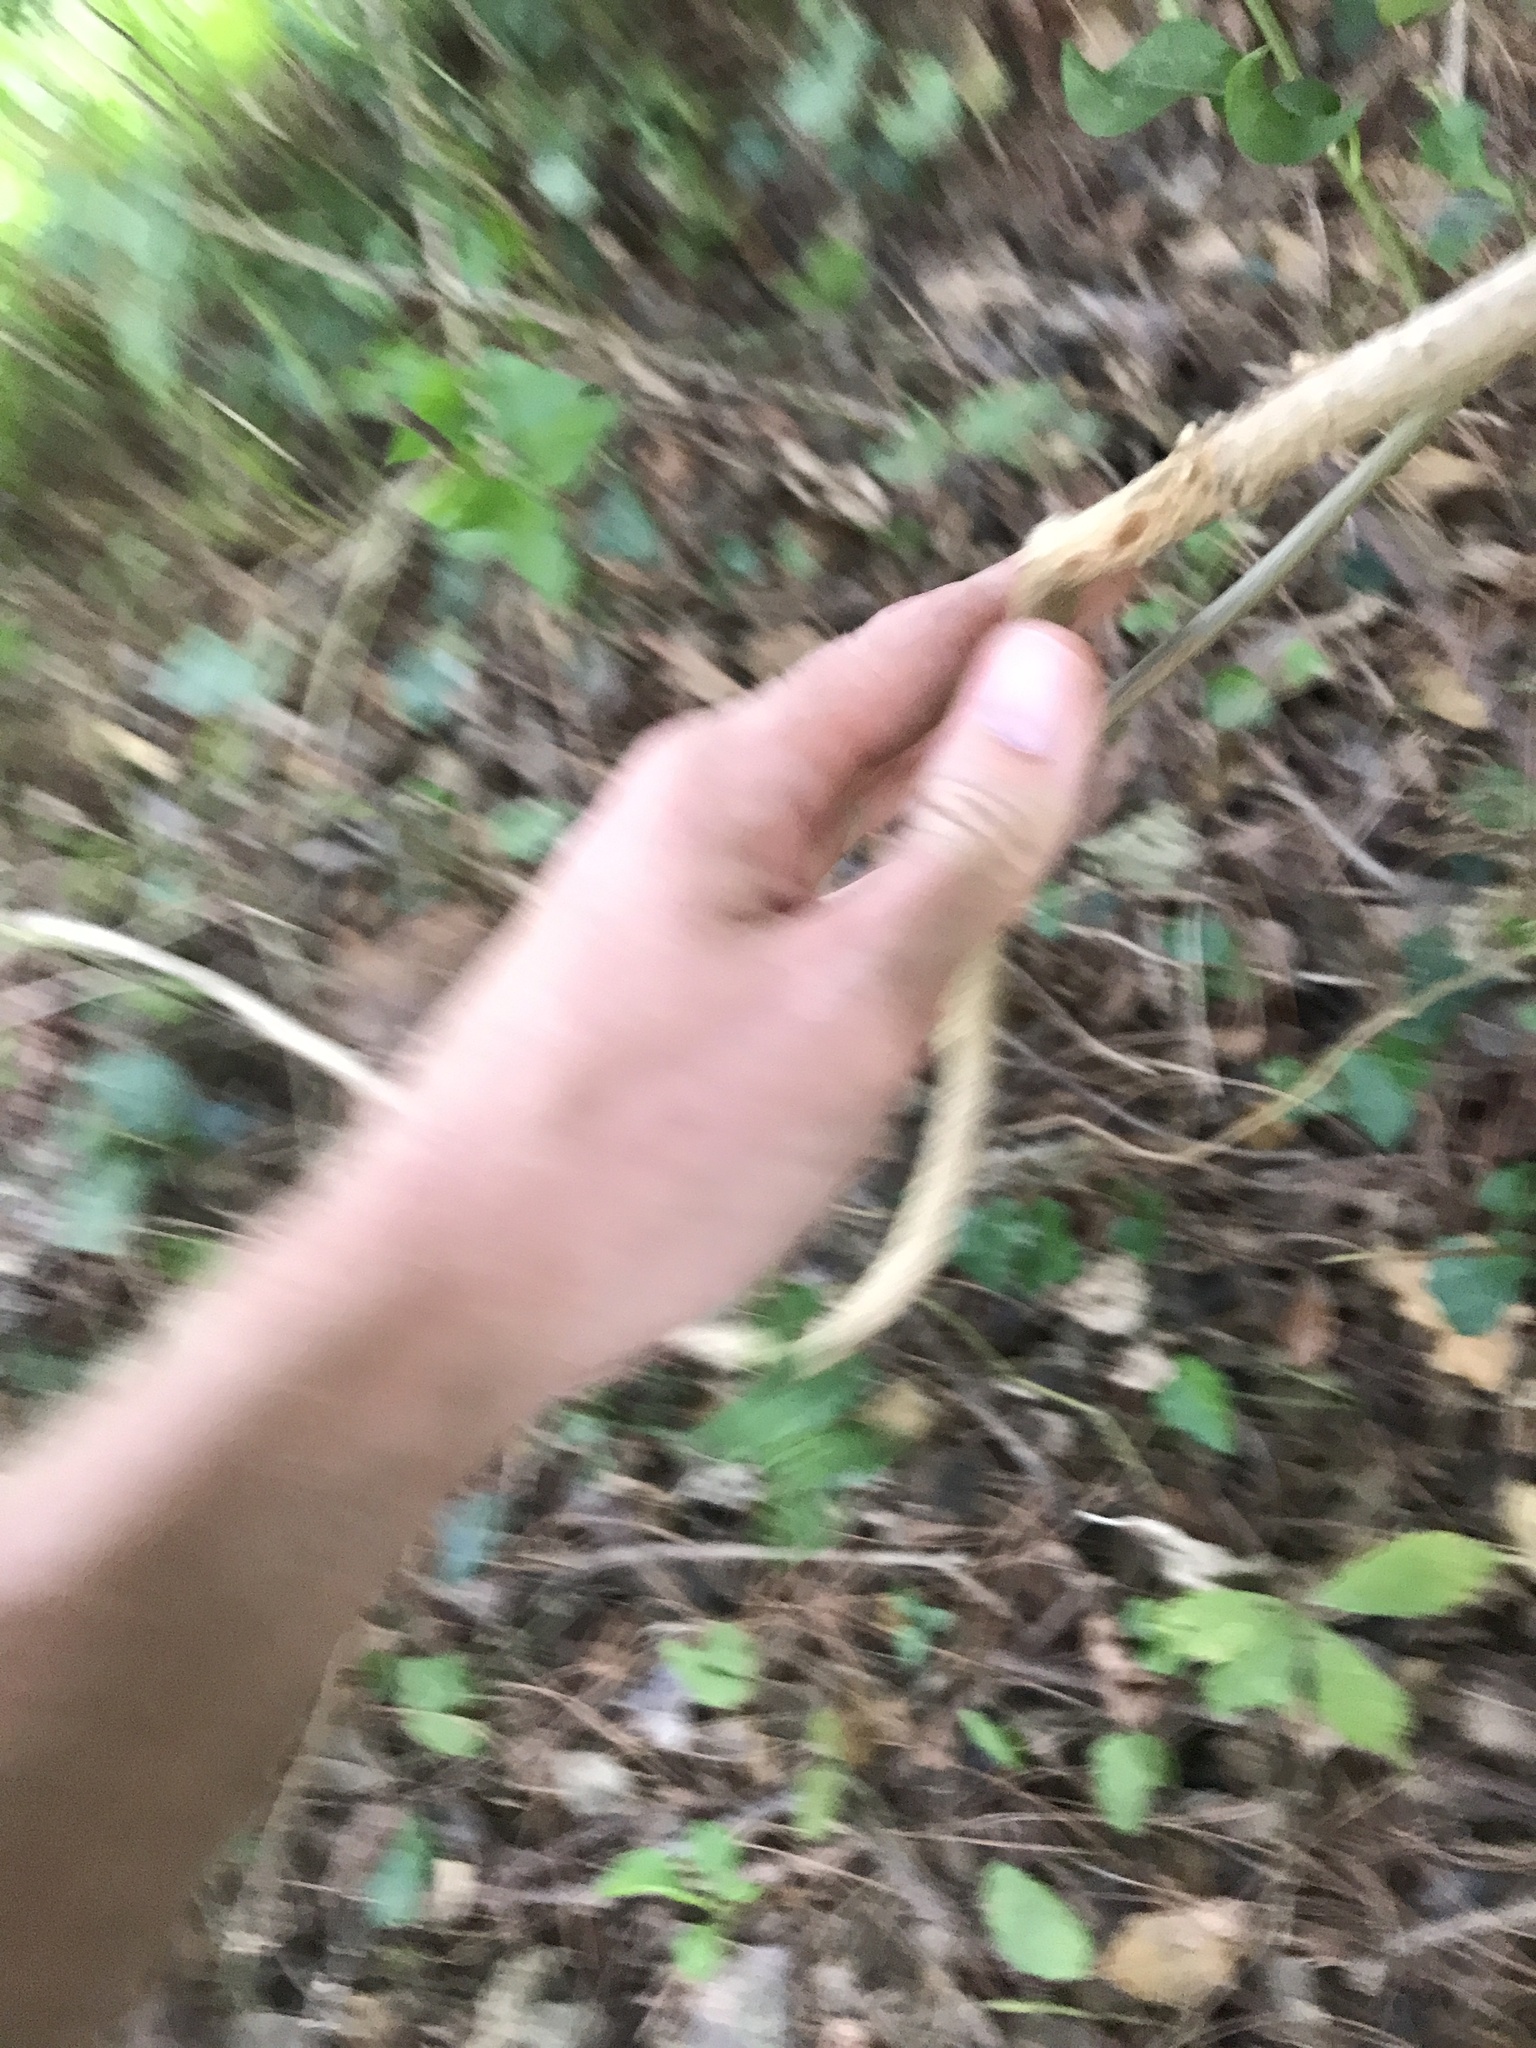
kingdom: Plantae
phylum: Tracheophyta
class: Magnoliopsida
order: Solanales
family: Solanaceae
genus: Solanum
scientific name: Solanum dulcamara
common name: Climbing nightshade
